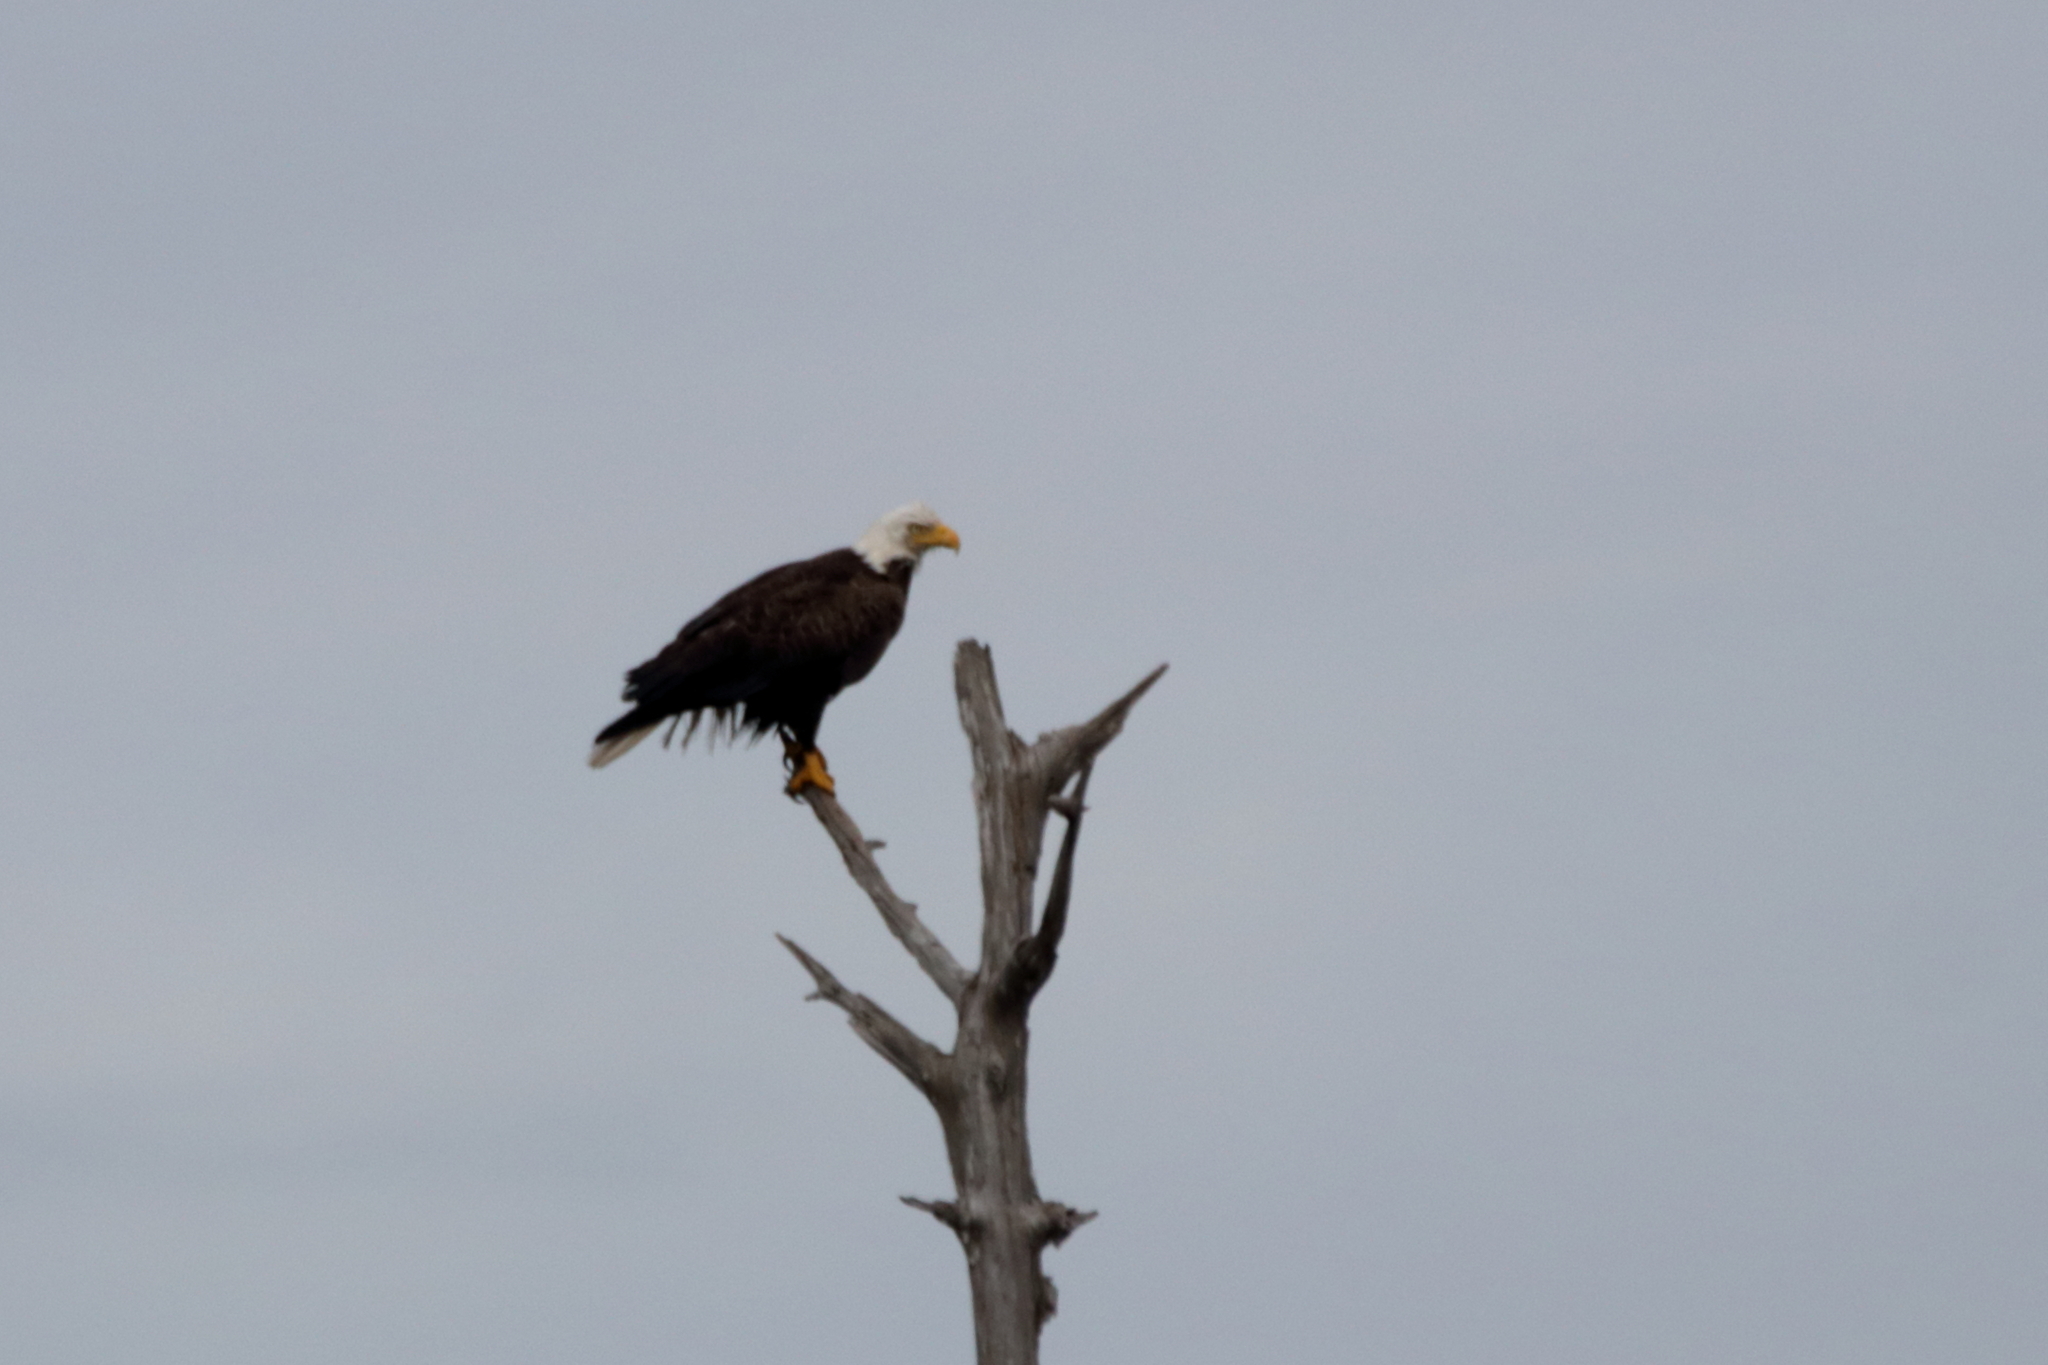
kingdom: Animalia
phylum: Chordata
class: Aves
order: Accipitriformes
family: Accipitridae
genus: Haliaeetus
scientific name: Haliaeetus leucocephalus
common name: Bald eagle
